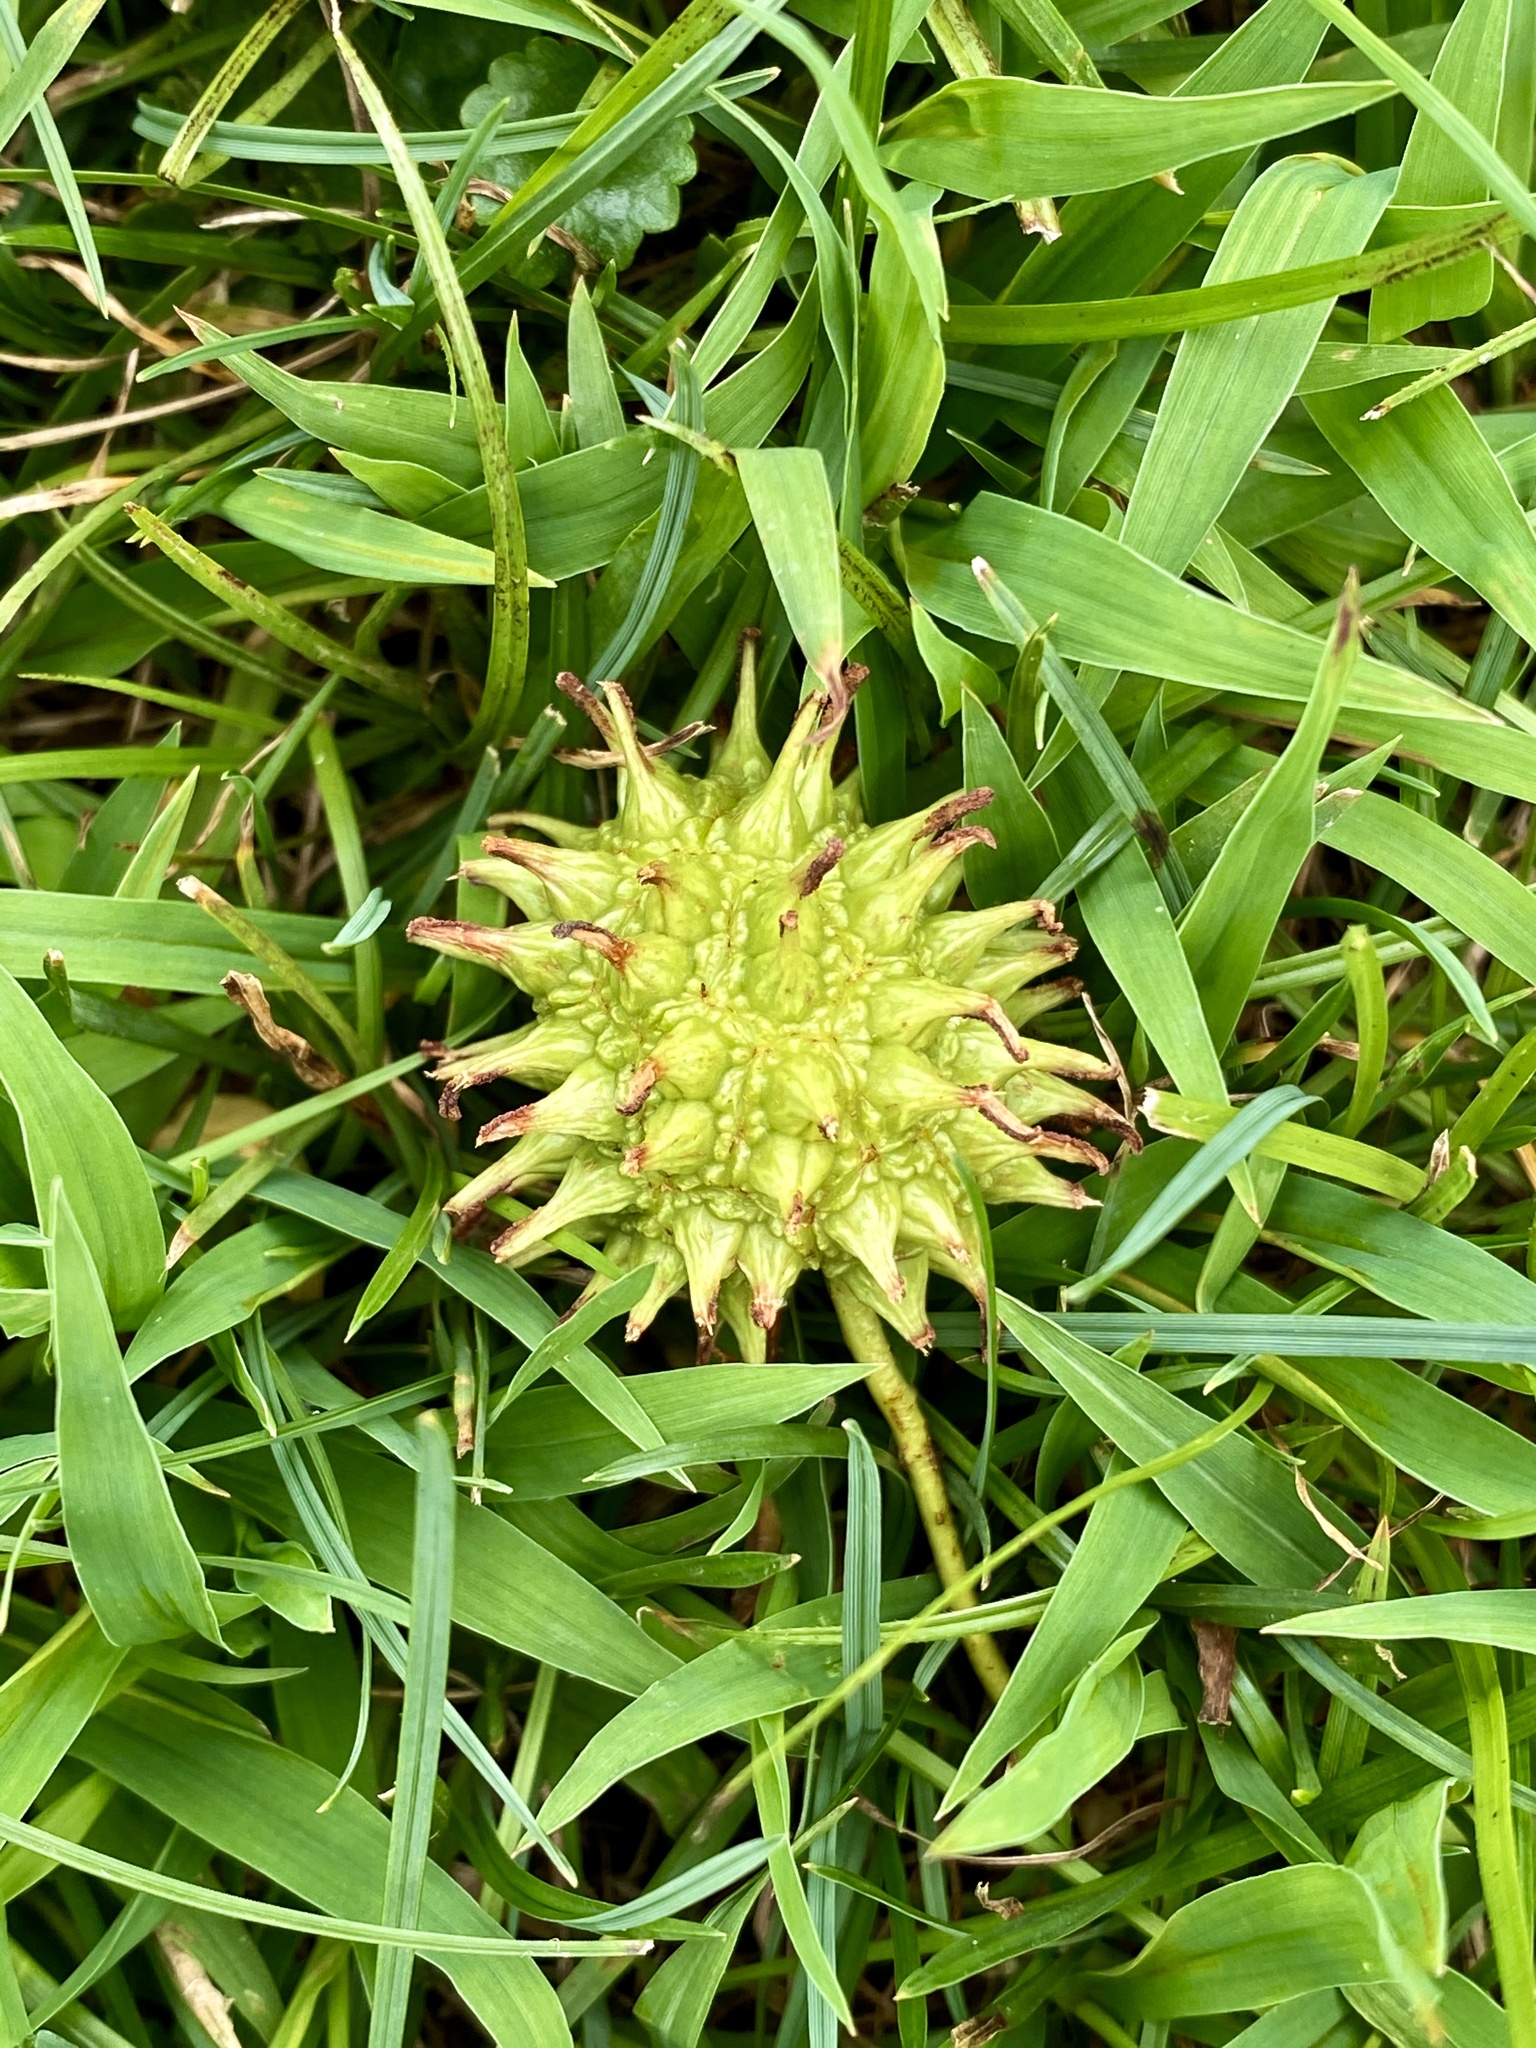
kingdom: Plantae
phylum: Tracheophyta
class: Magnoliopsida
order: Saxifragales
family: Altingiaceae
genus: Liquidambar
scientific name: Liquidambar styraciflua
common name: Sweet gum
